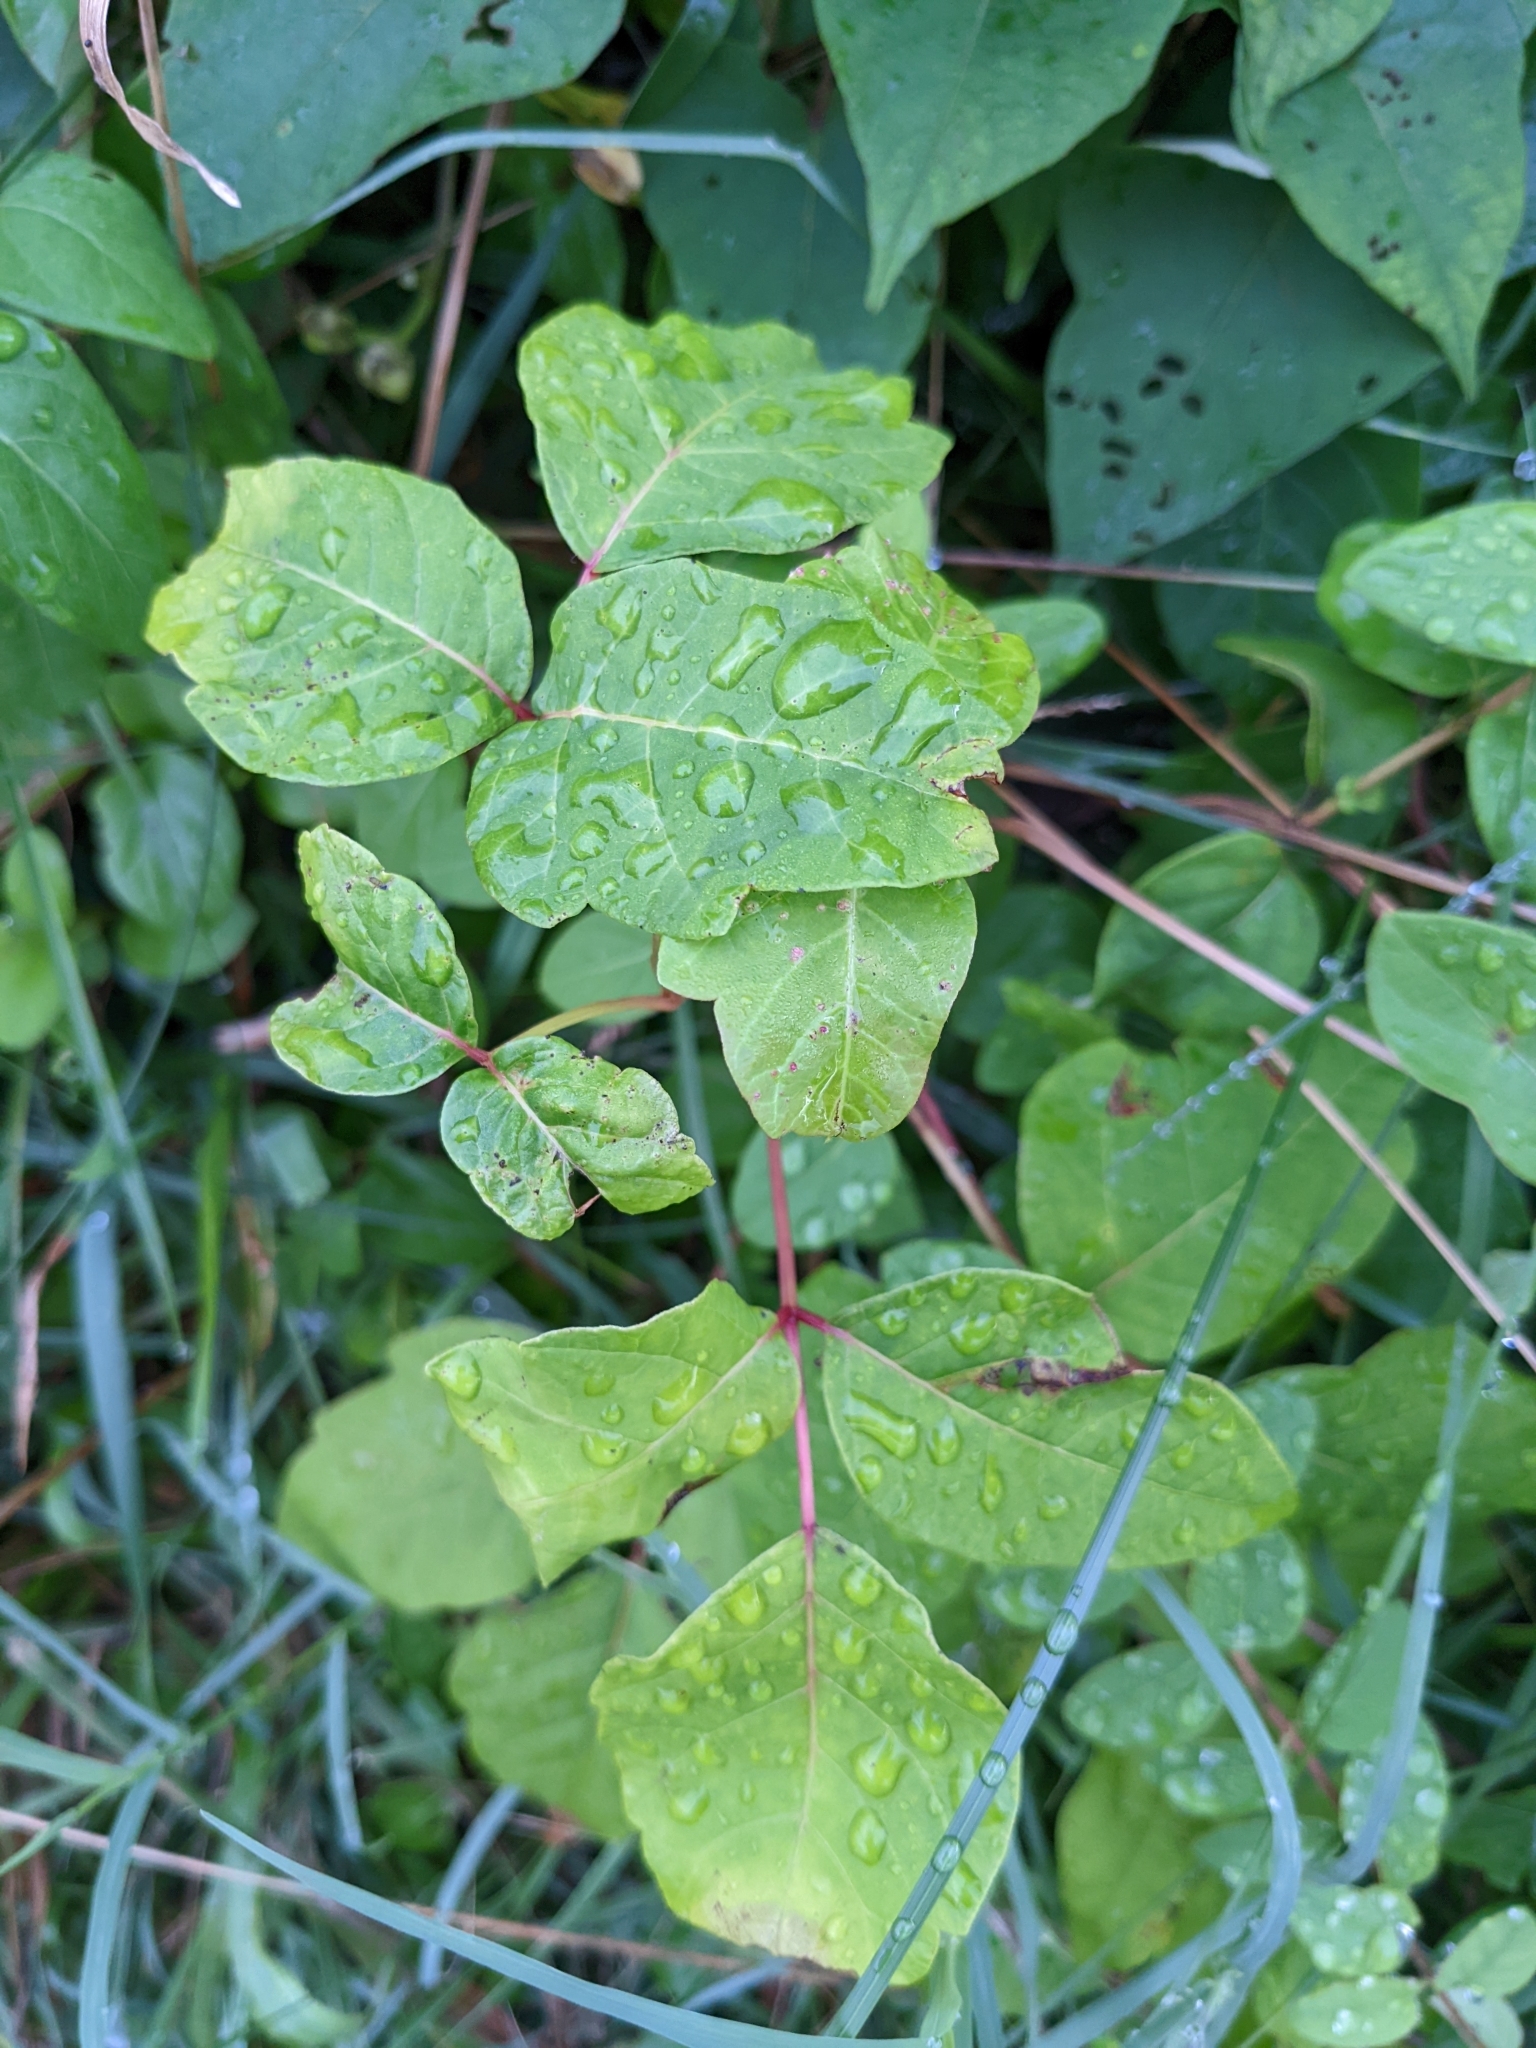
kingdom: Plantae
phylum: Tracheophyta
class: Magnoliopsida
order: Sapindales
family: Anacardiaceae
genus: Toxicodendron
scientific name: Toxicodendron radicans
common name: Poison ivy
